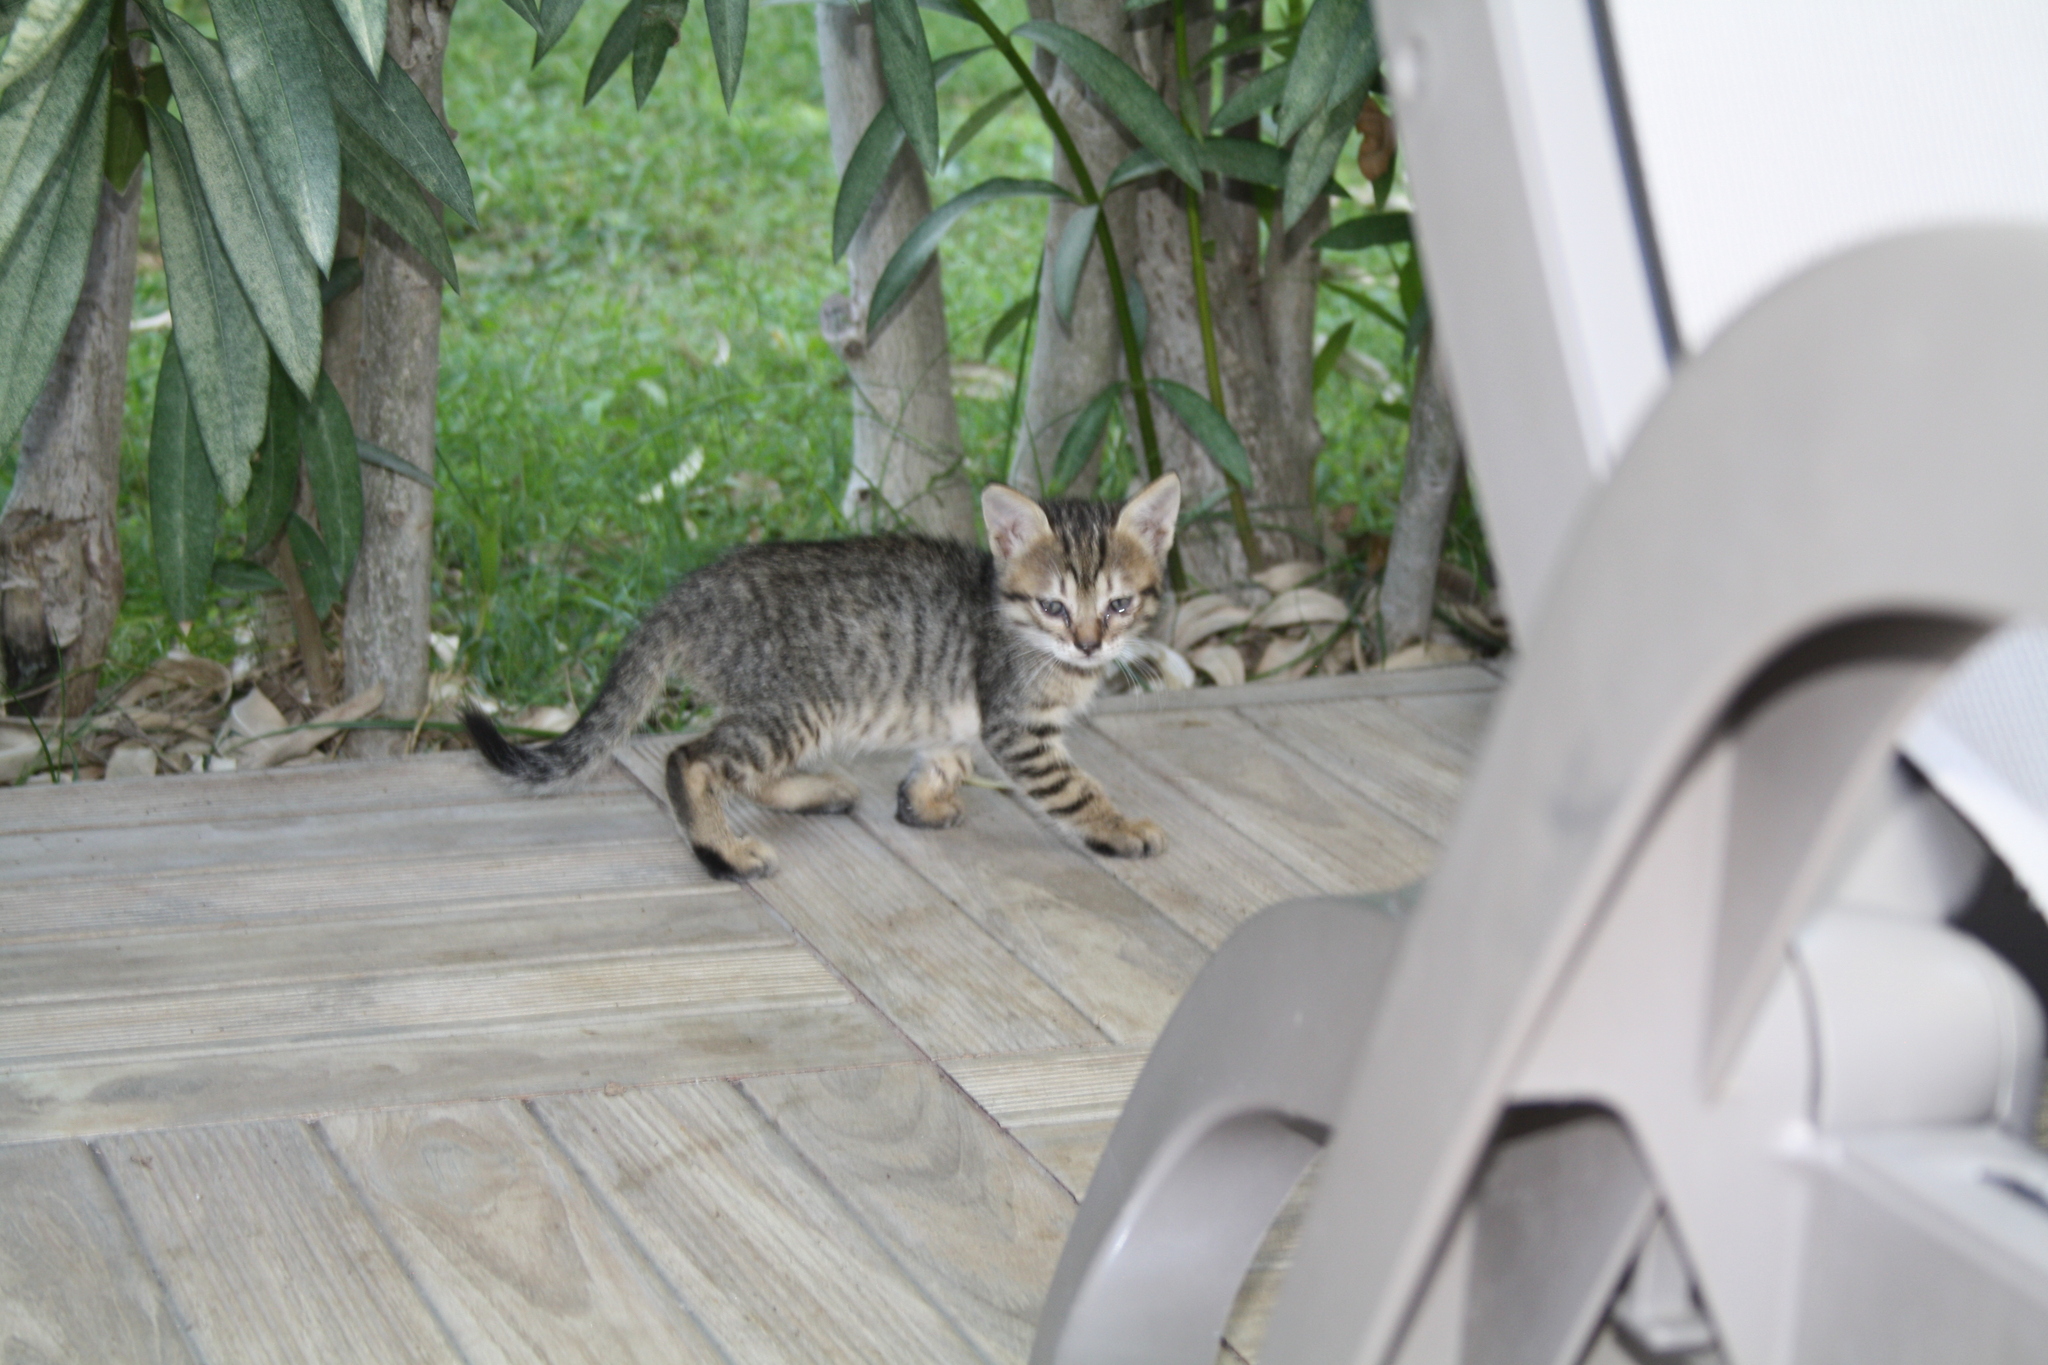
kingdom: Animalia
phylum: Chordata
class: Mammalia
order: Carnivora
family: Felidae
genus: Felis
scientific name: Felis catus
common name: Domestic cat
